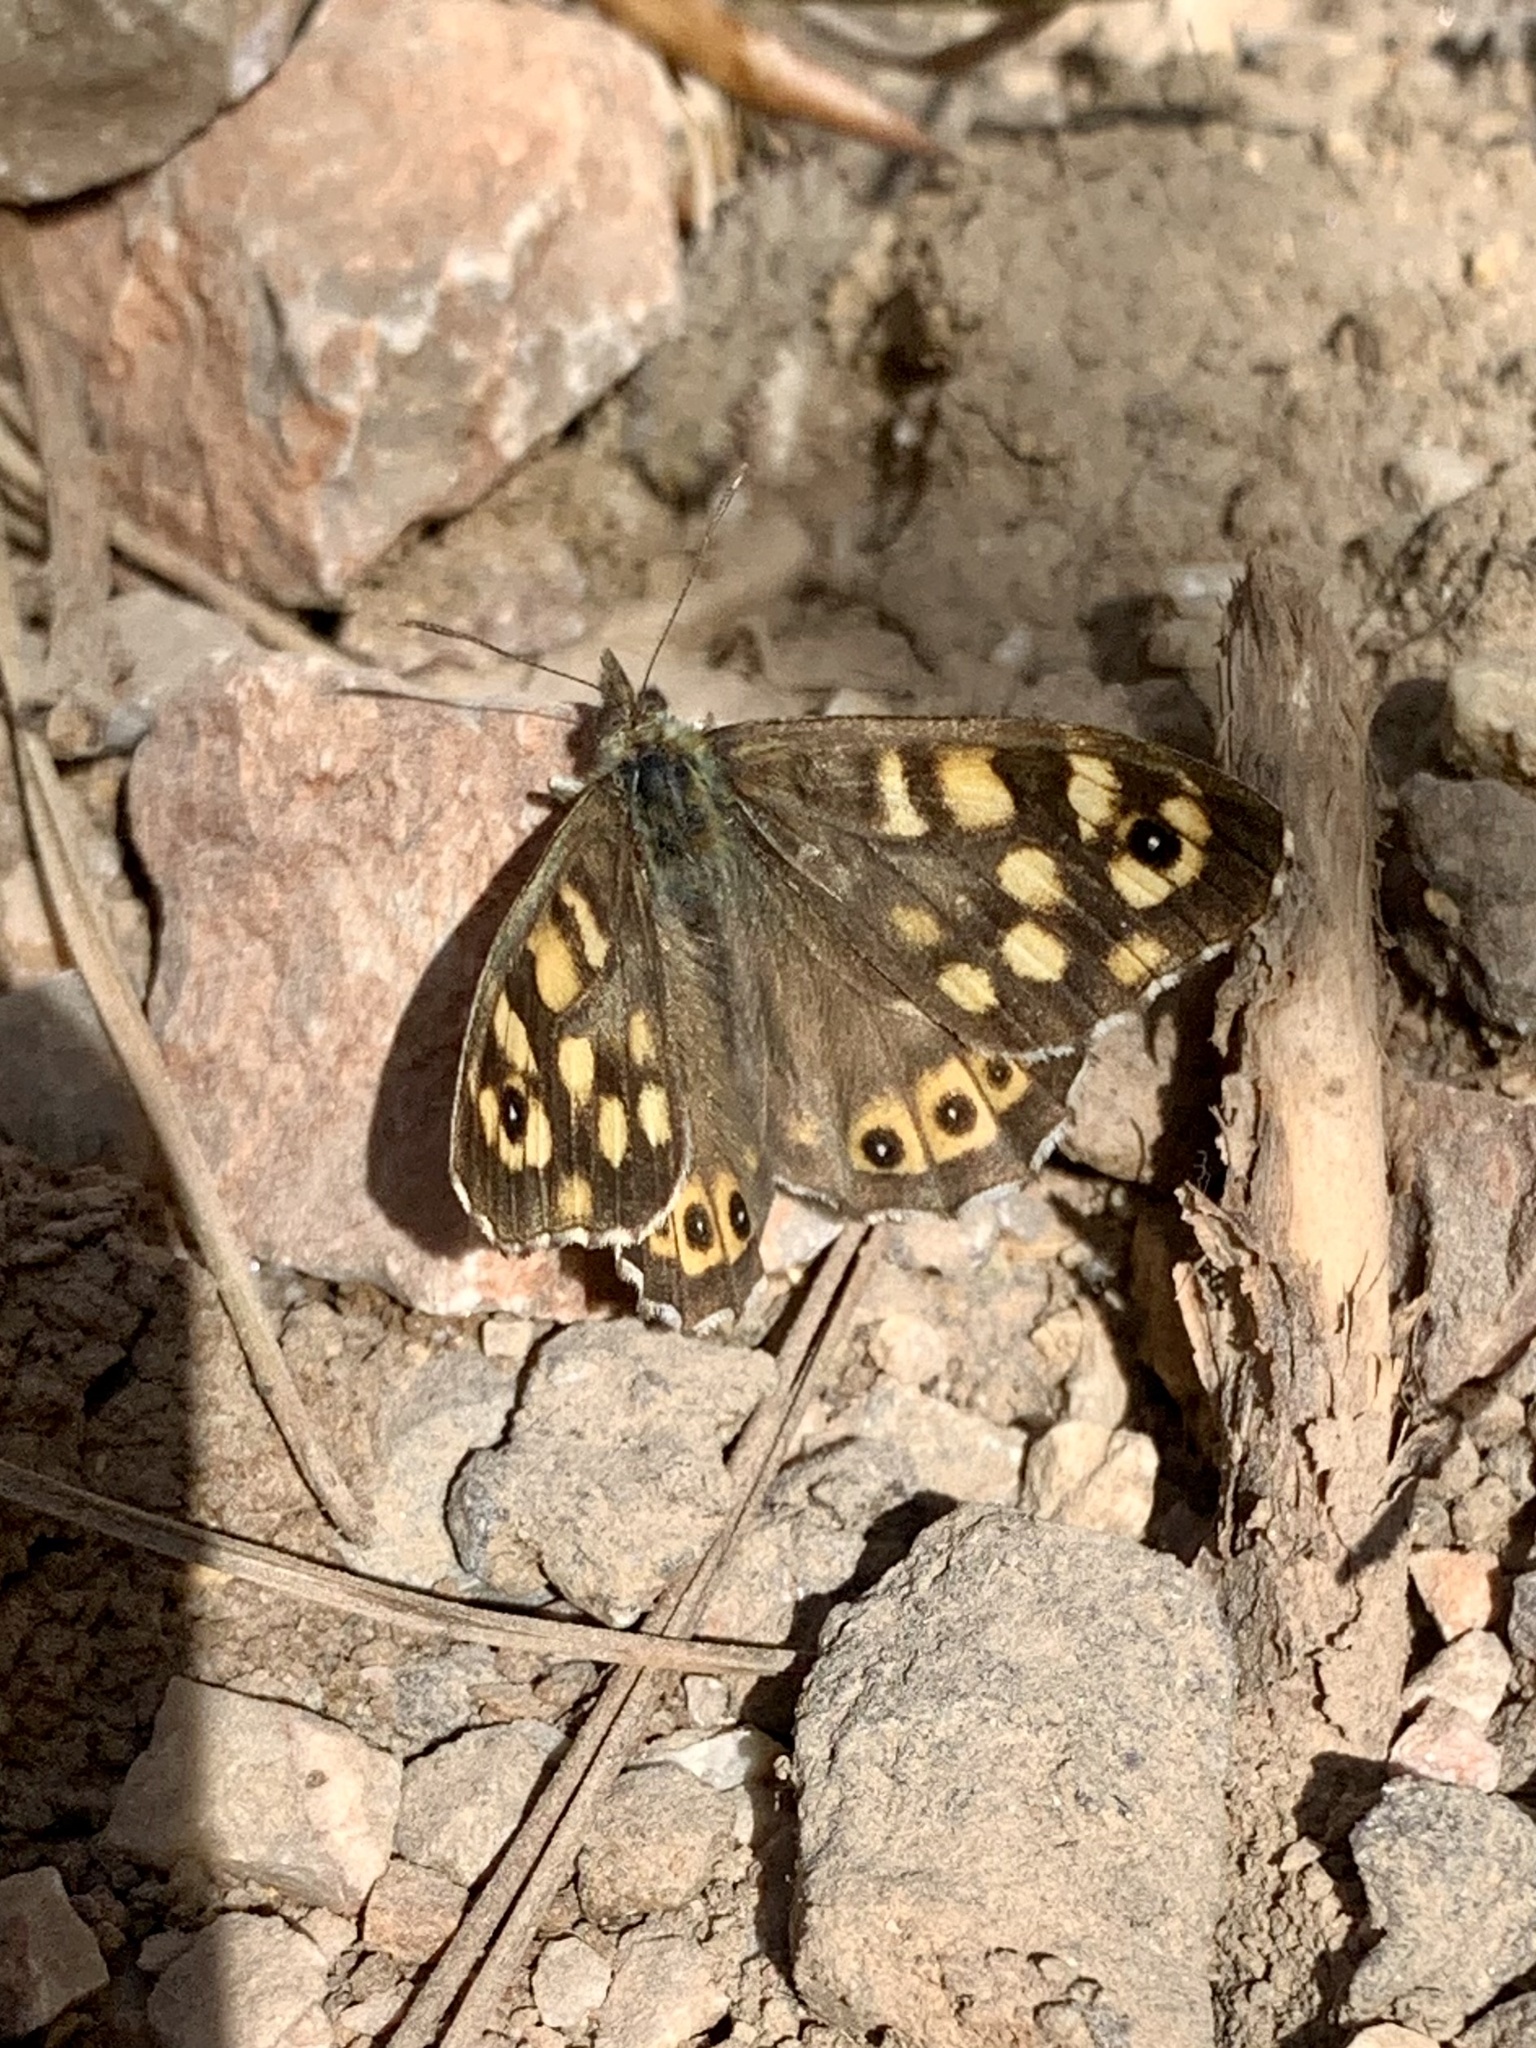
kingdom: Animalia
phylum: Arthropoda
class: Insecta
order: Lepidoptera
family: Nymphalidae
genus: Pararge
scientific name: Pararge aegeria
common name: Speckled wood
